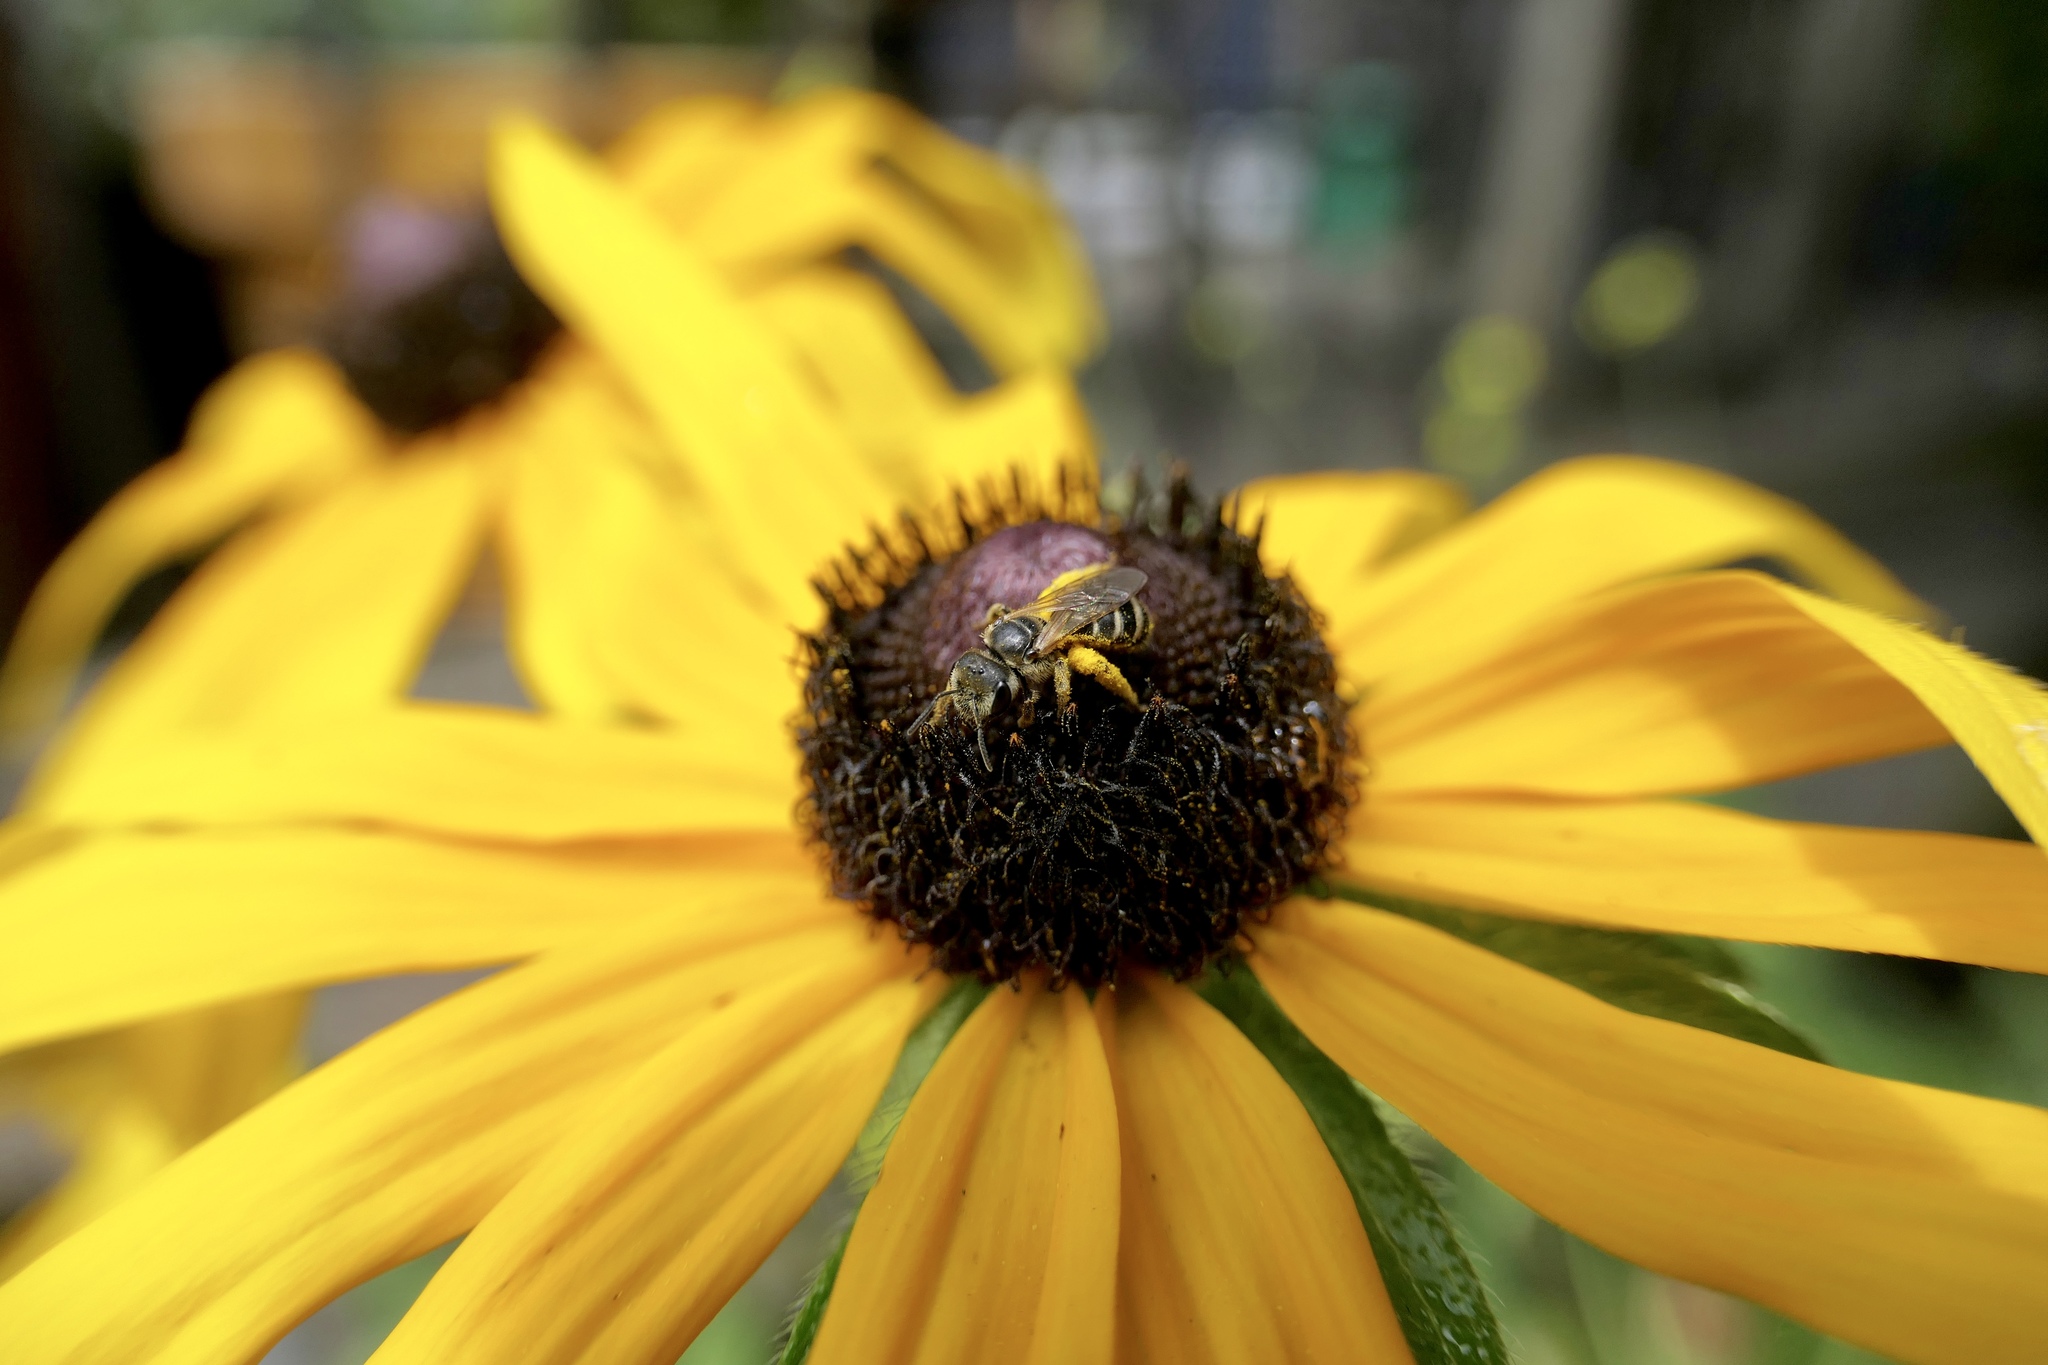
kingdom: Animalia
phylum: Arthropoda
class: Insecta
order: Hymenoptera
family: Halictidae
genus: Halictus
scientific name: Halictus ligatus
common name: Ligated furrow bee
